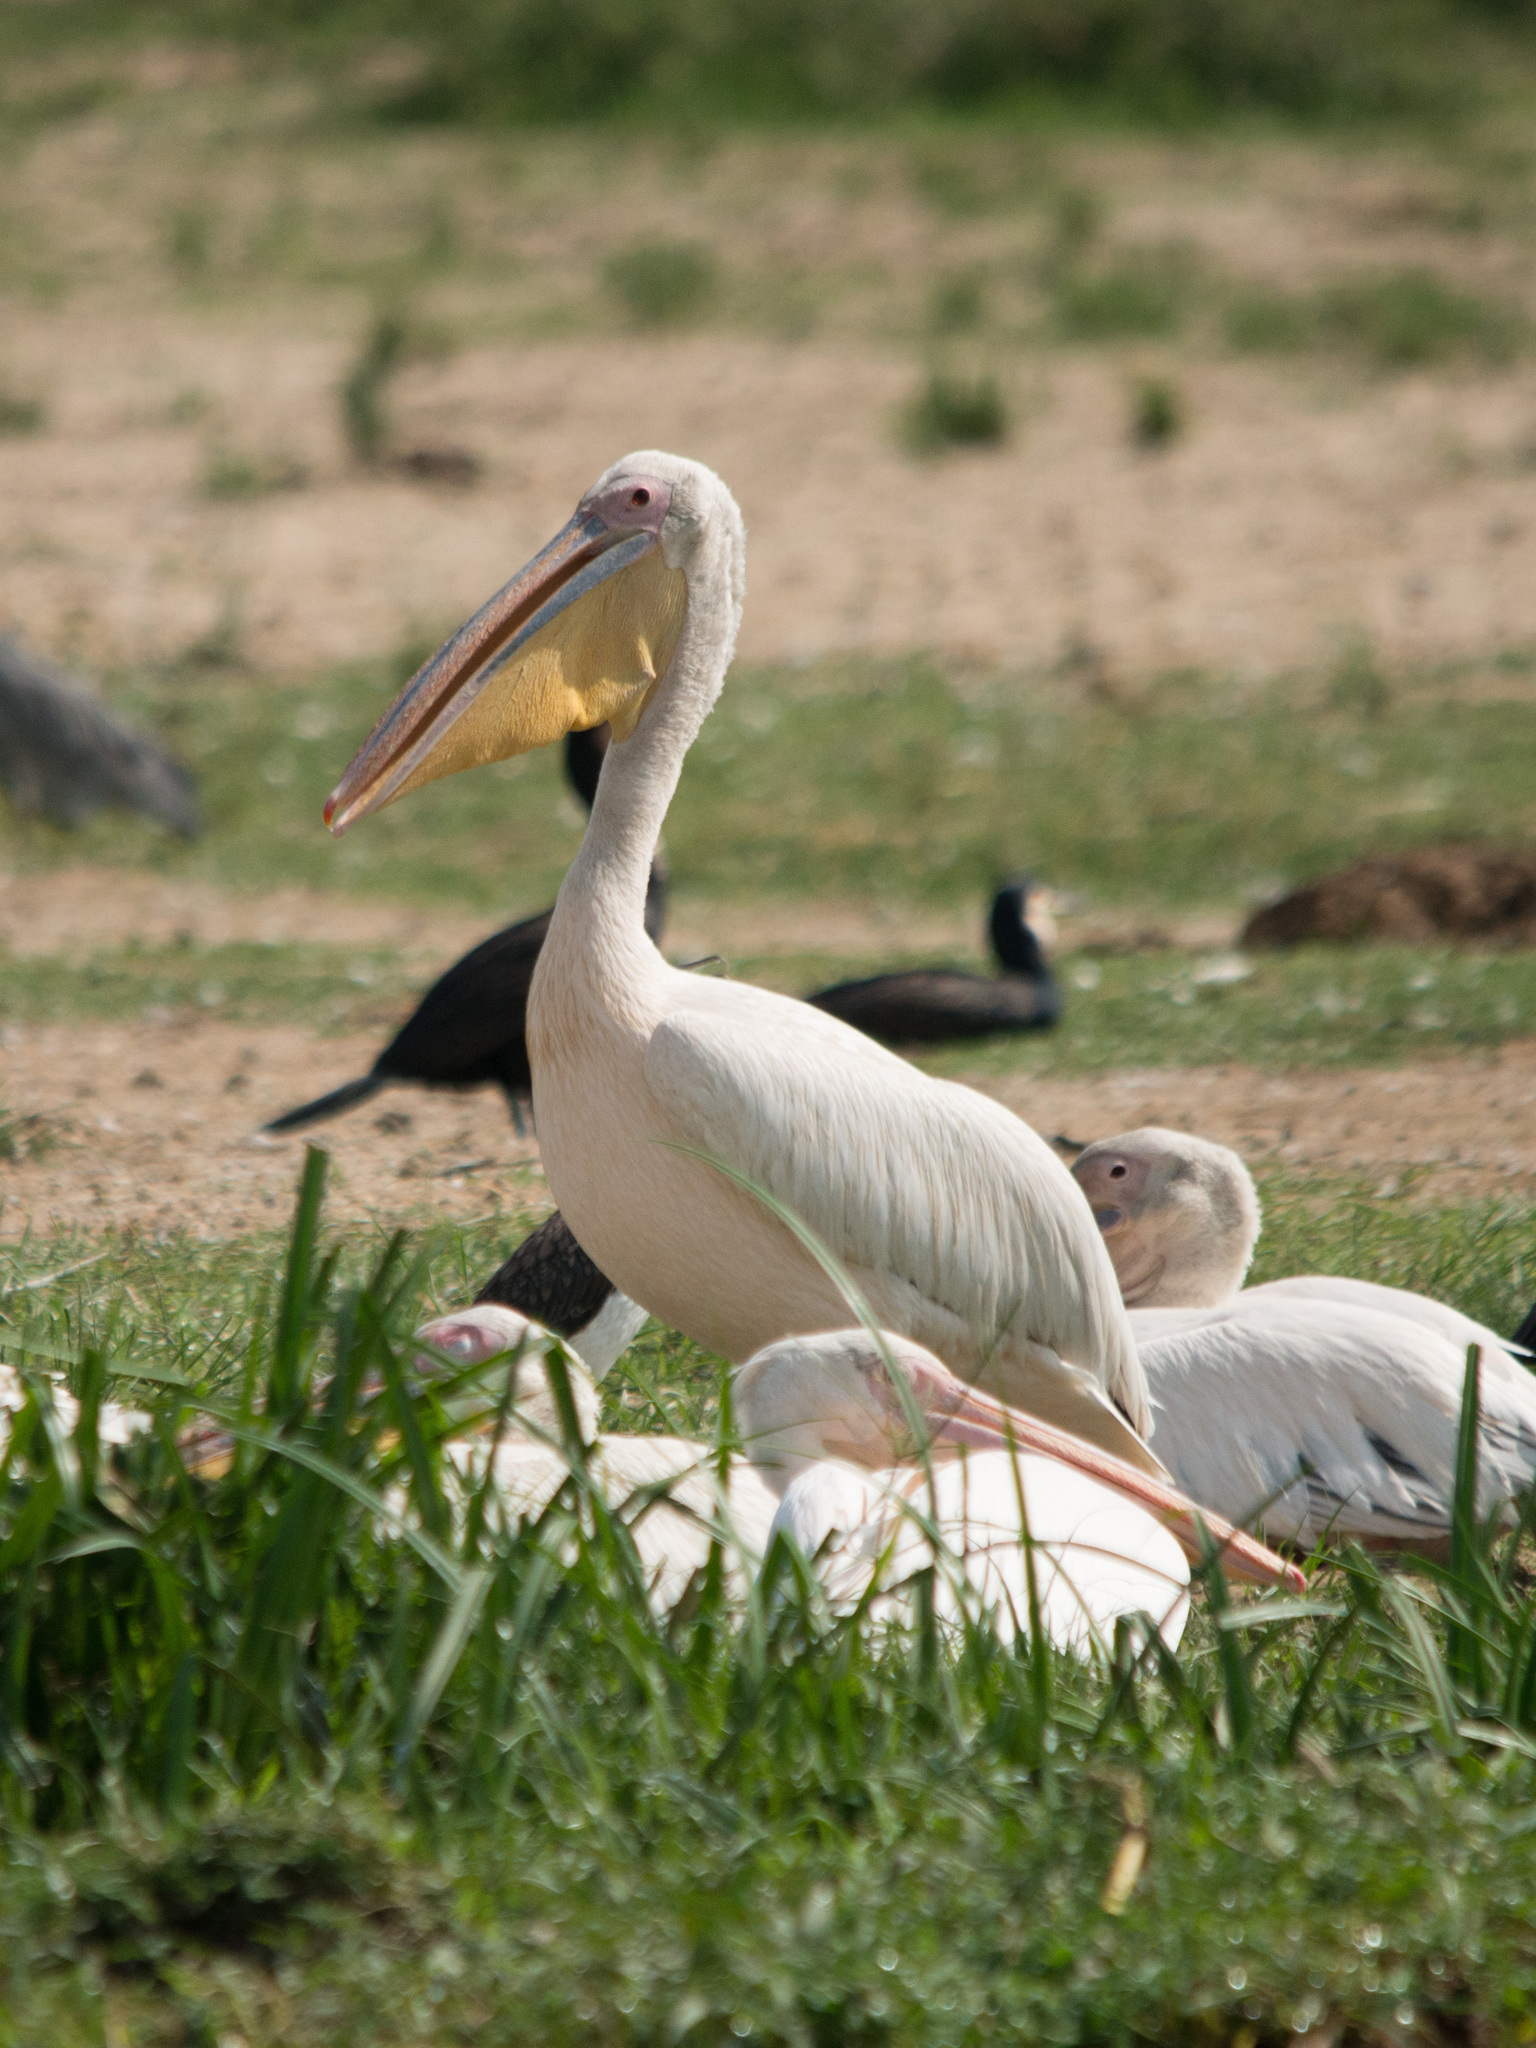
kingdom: Animalia
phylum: Chordata
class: Aves
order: Pelecaniformes
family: Pelecanidae
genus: Pelecanus
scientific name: Pelecanus onocrotalus
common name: Great white pelican
